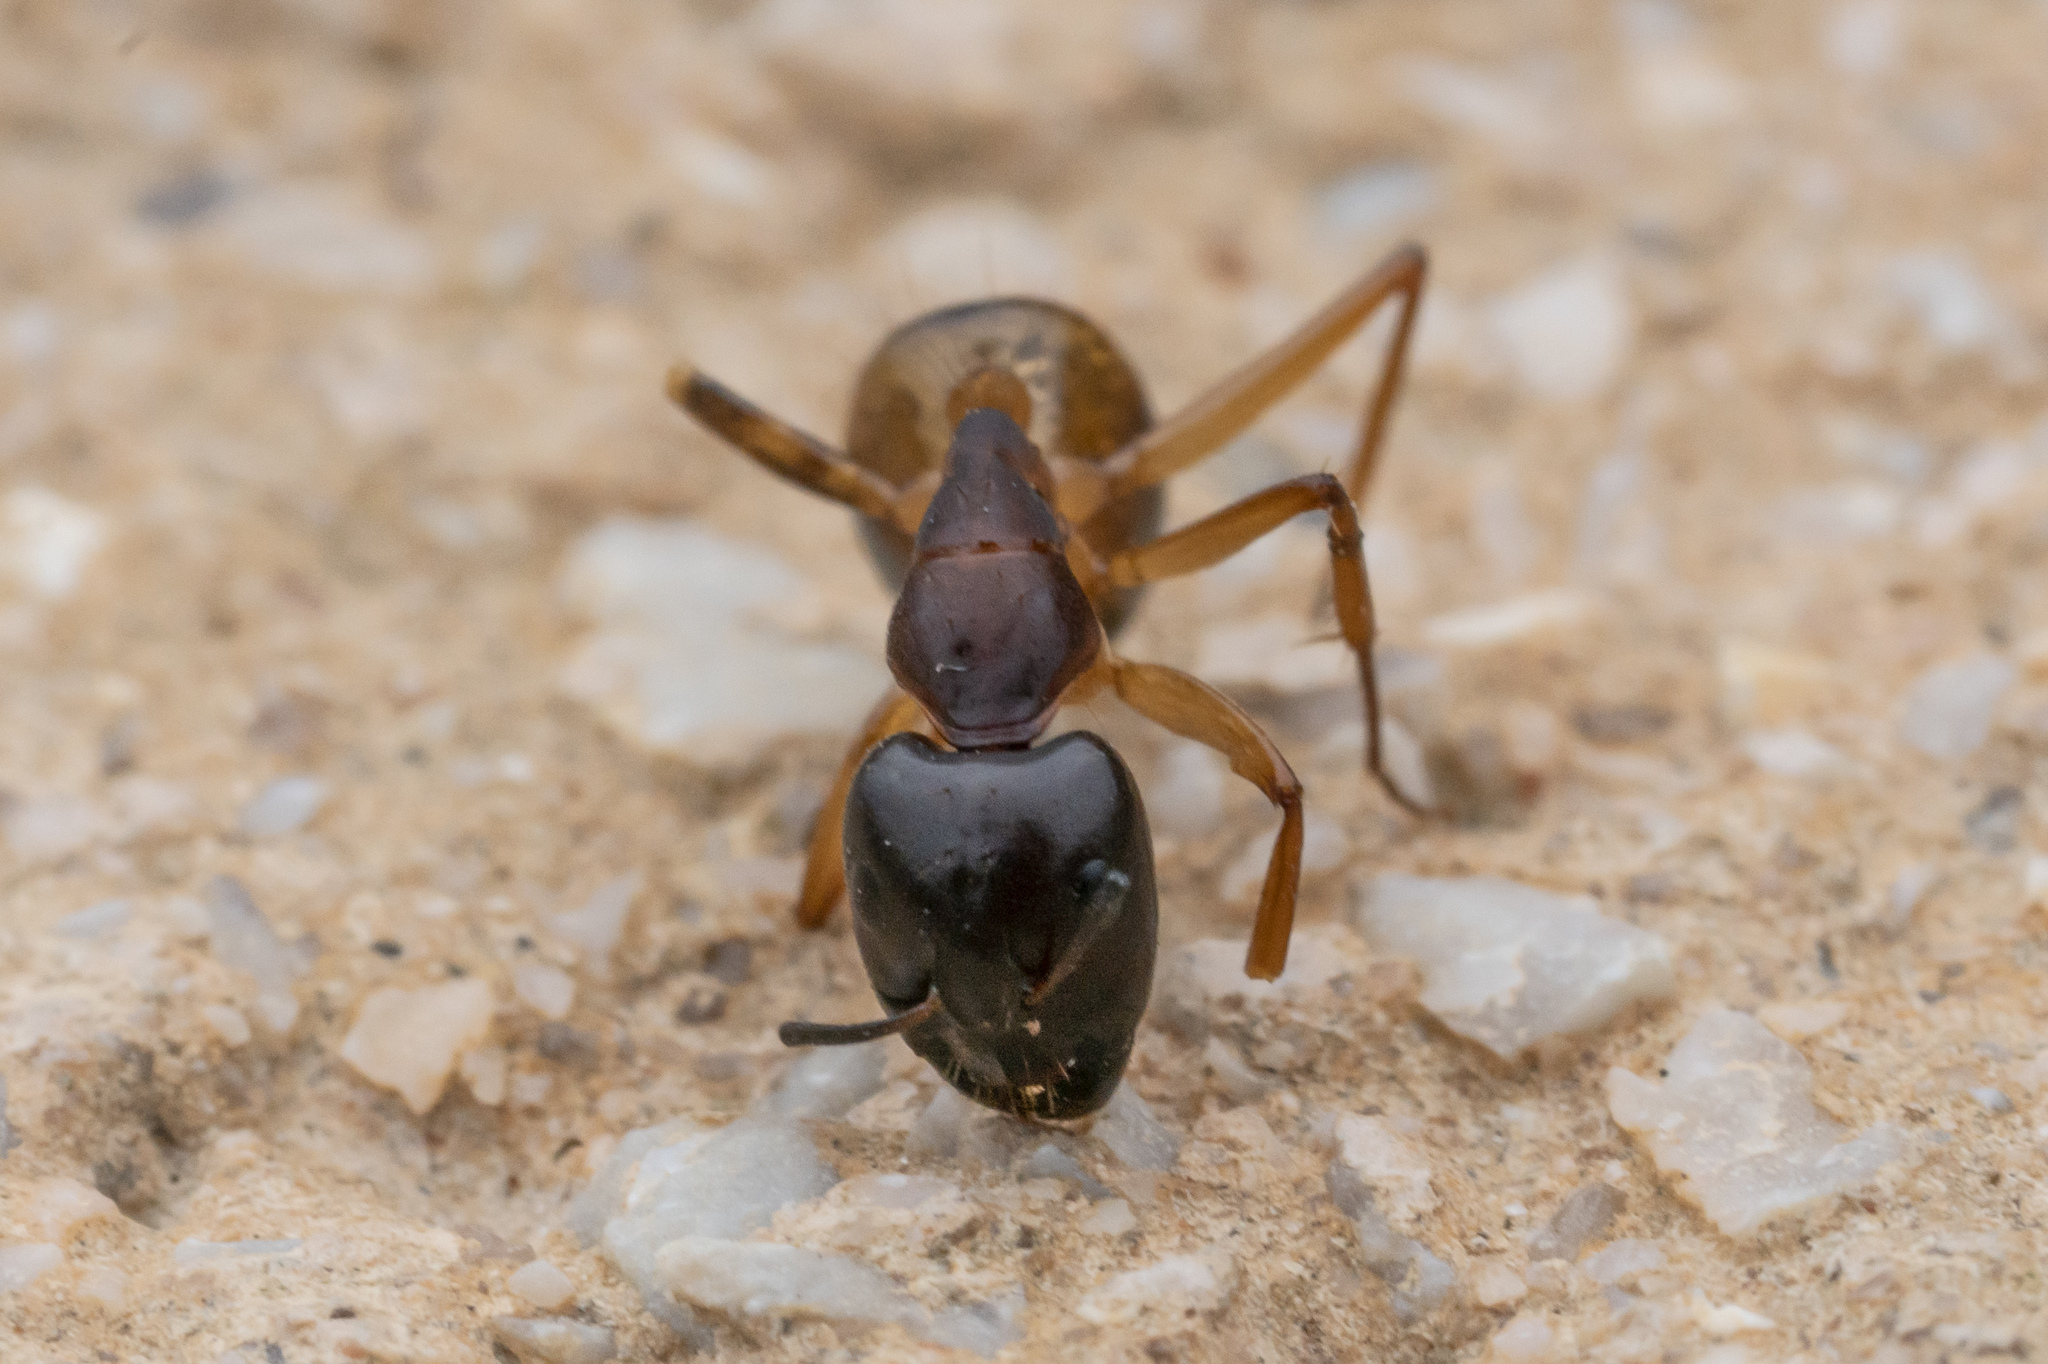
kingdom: Animalia
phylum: Arthropoda
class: Insecta
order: Hymenoptera
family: Formicidae
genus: Camponotus
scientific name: Camponotus sanctus
